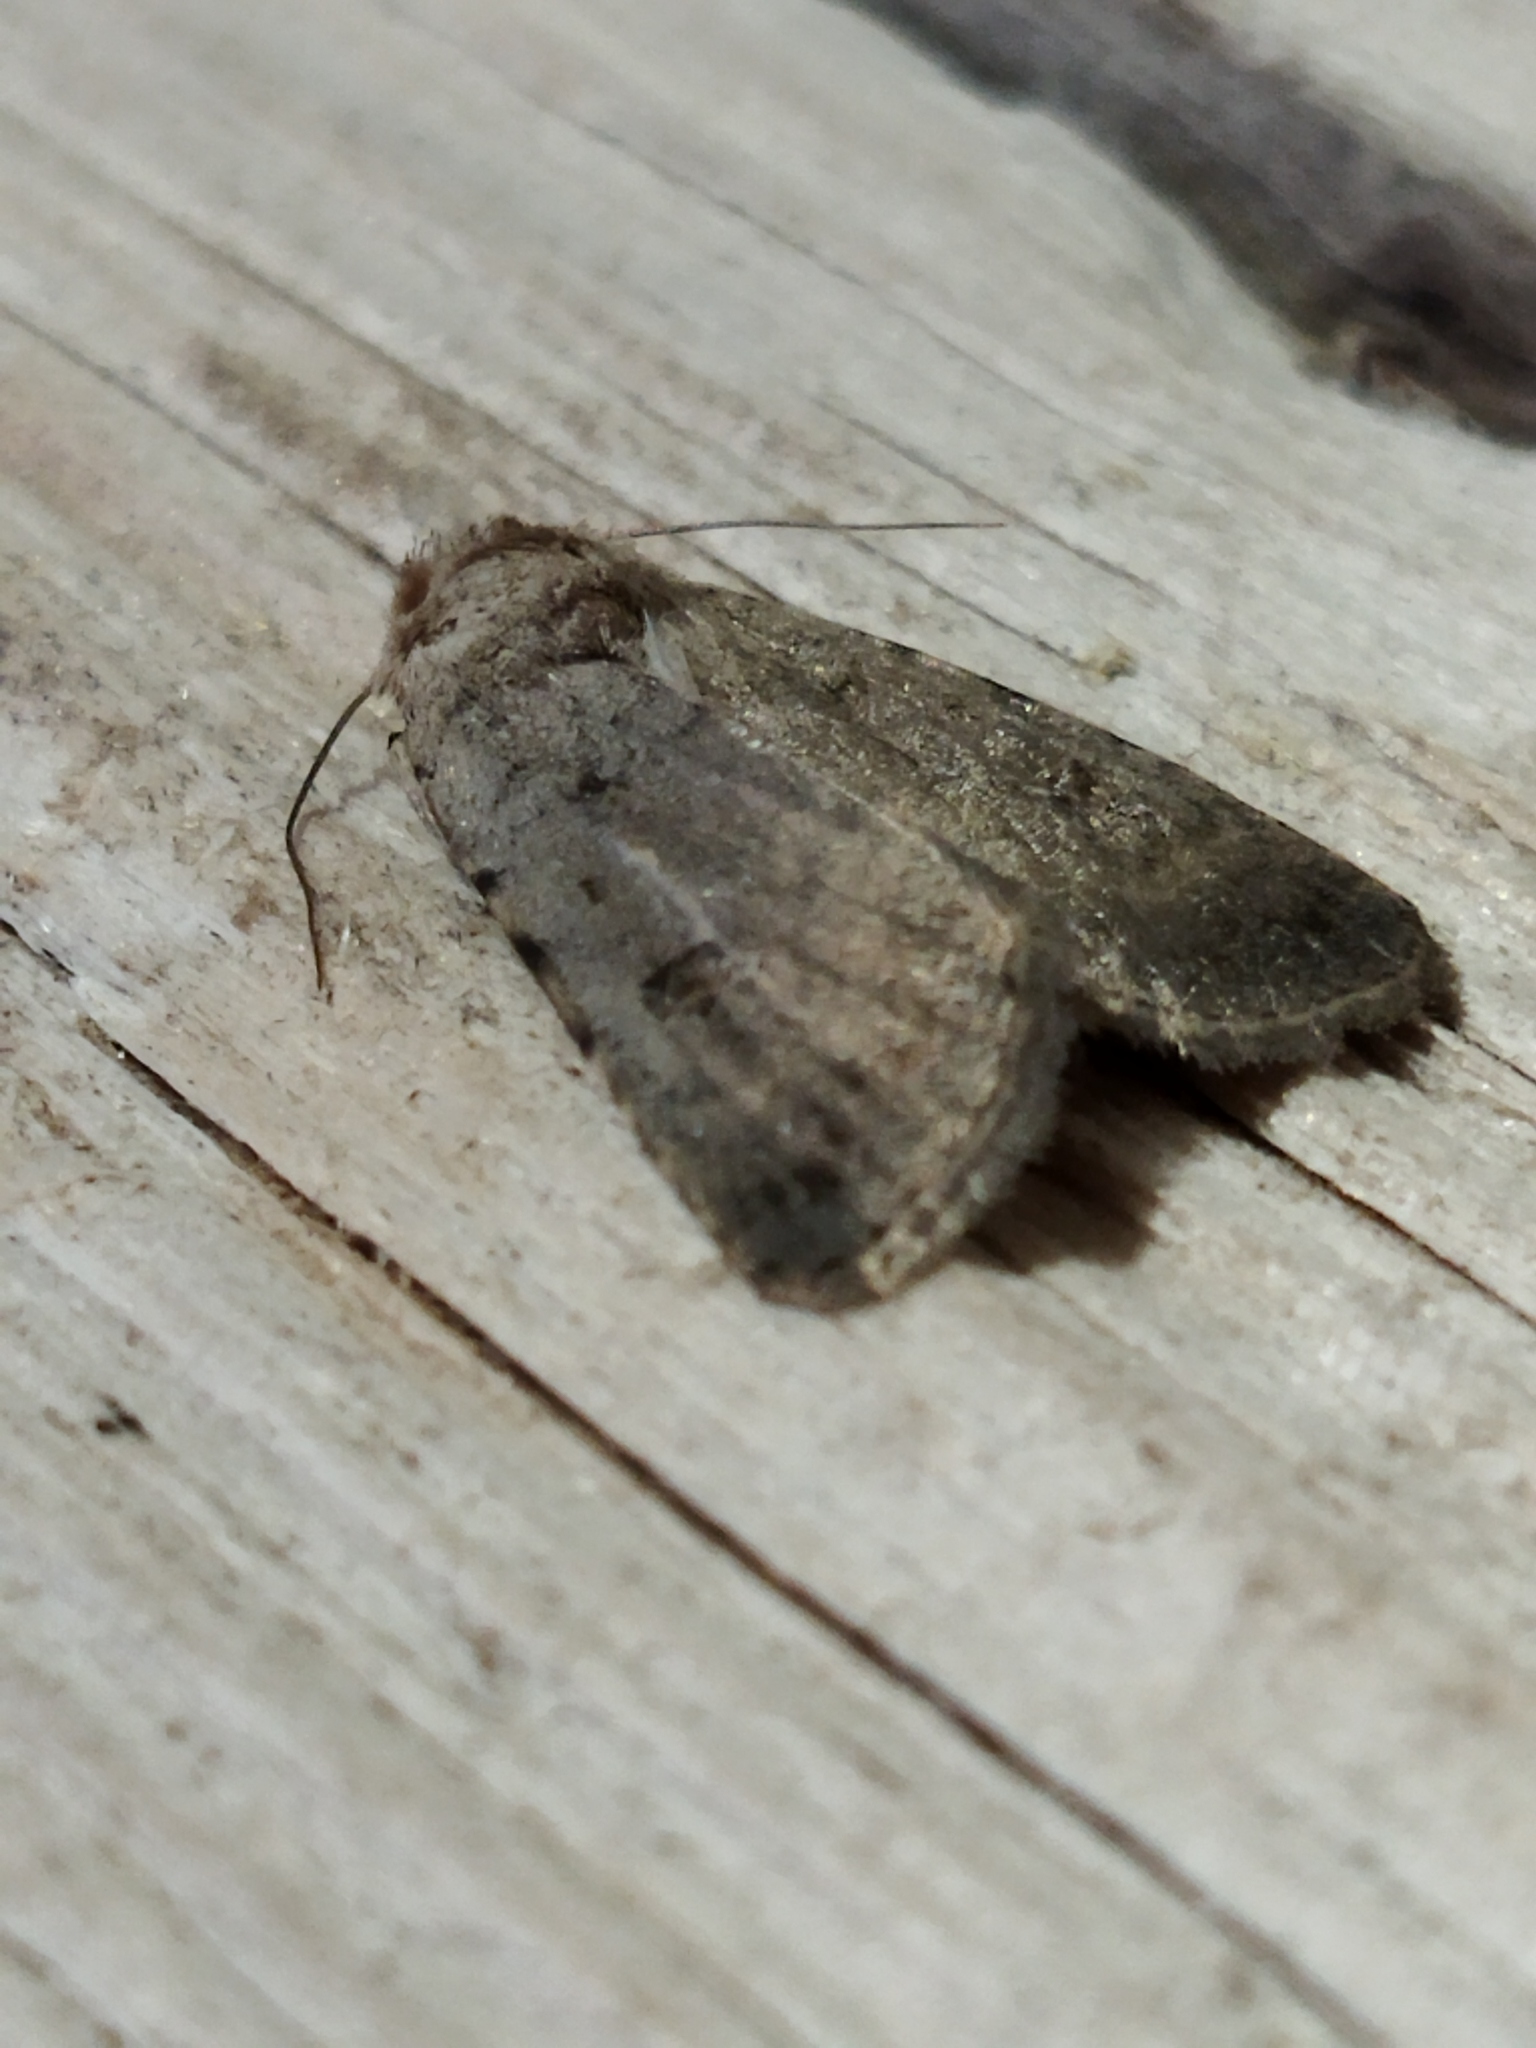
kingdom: Animalia
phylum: Arthropoda
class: Insecta
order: Lepidoptera
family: Noctuidae
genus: Caradrina
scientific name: Caradrina flavirena
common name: Lorimer's rustic
